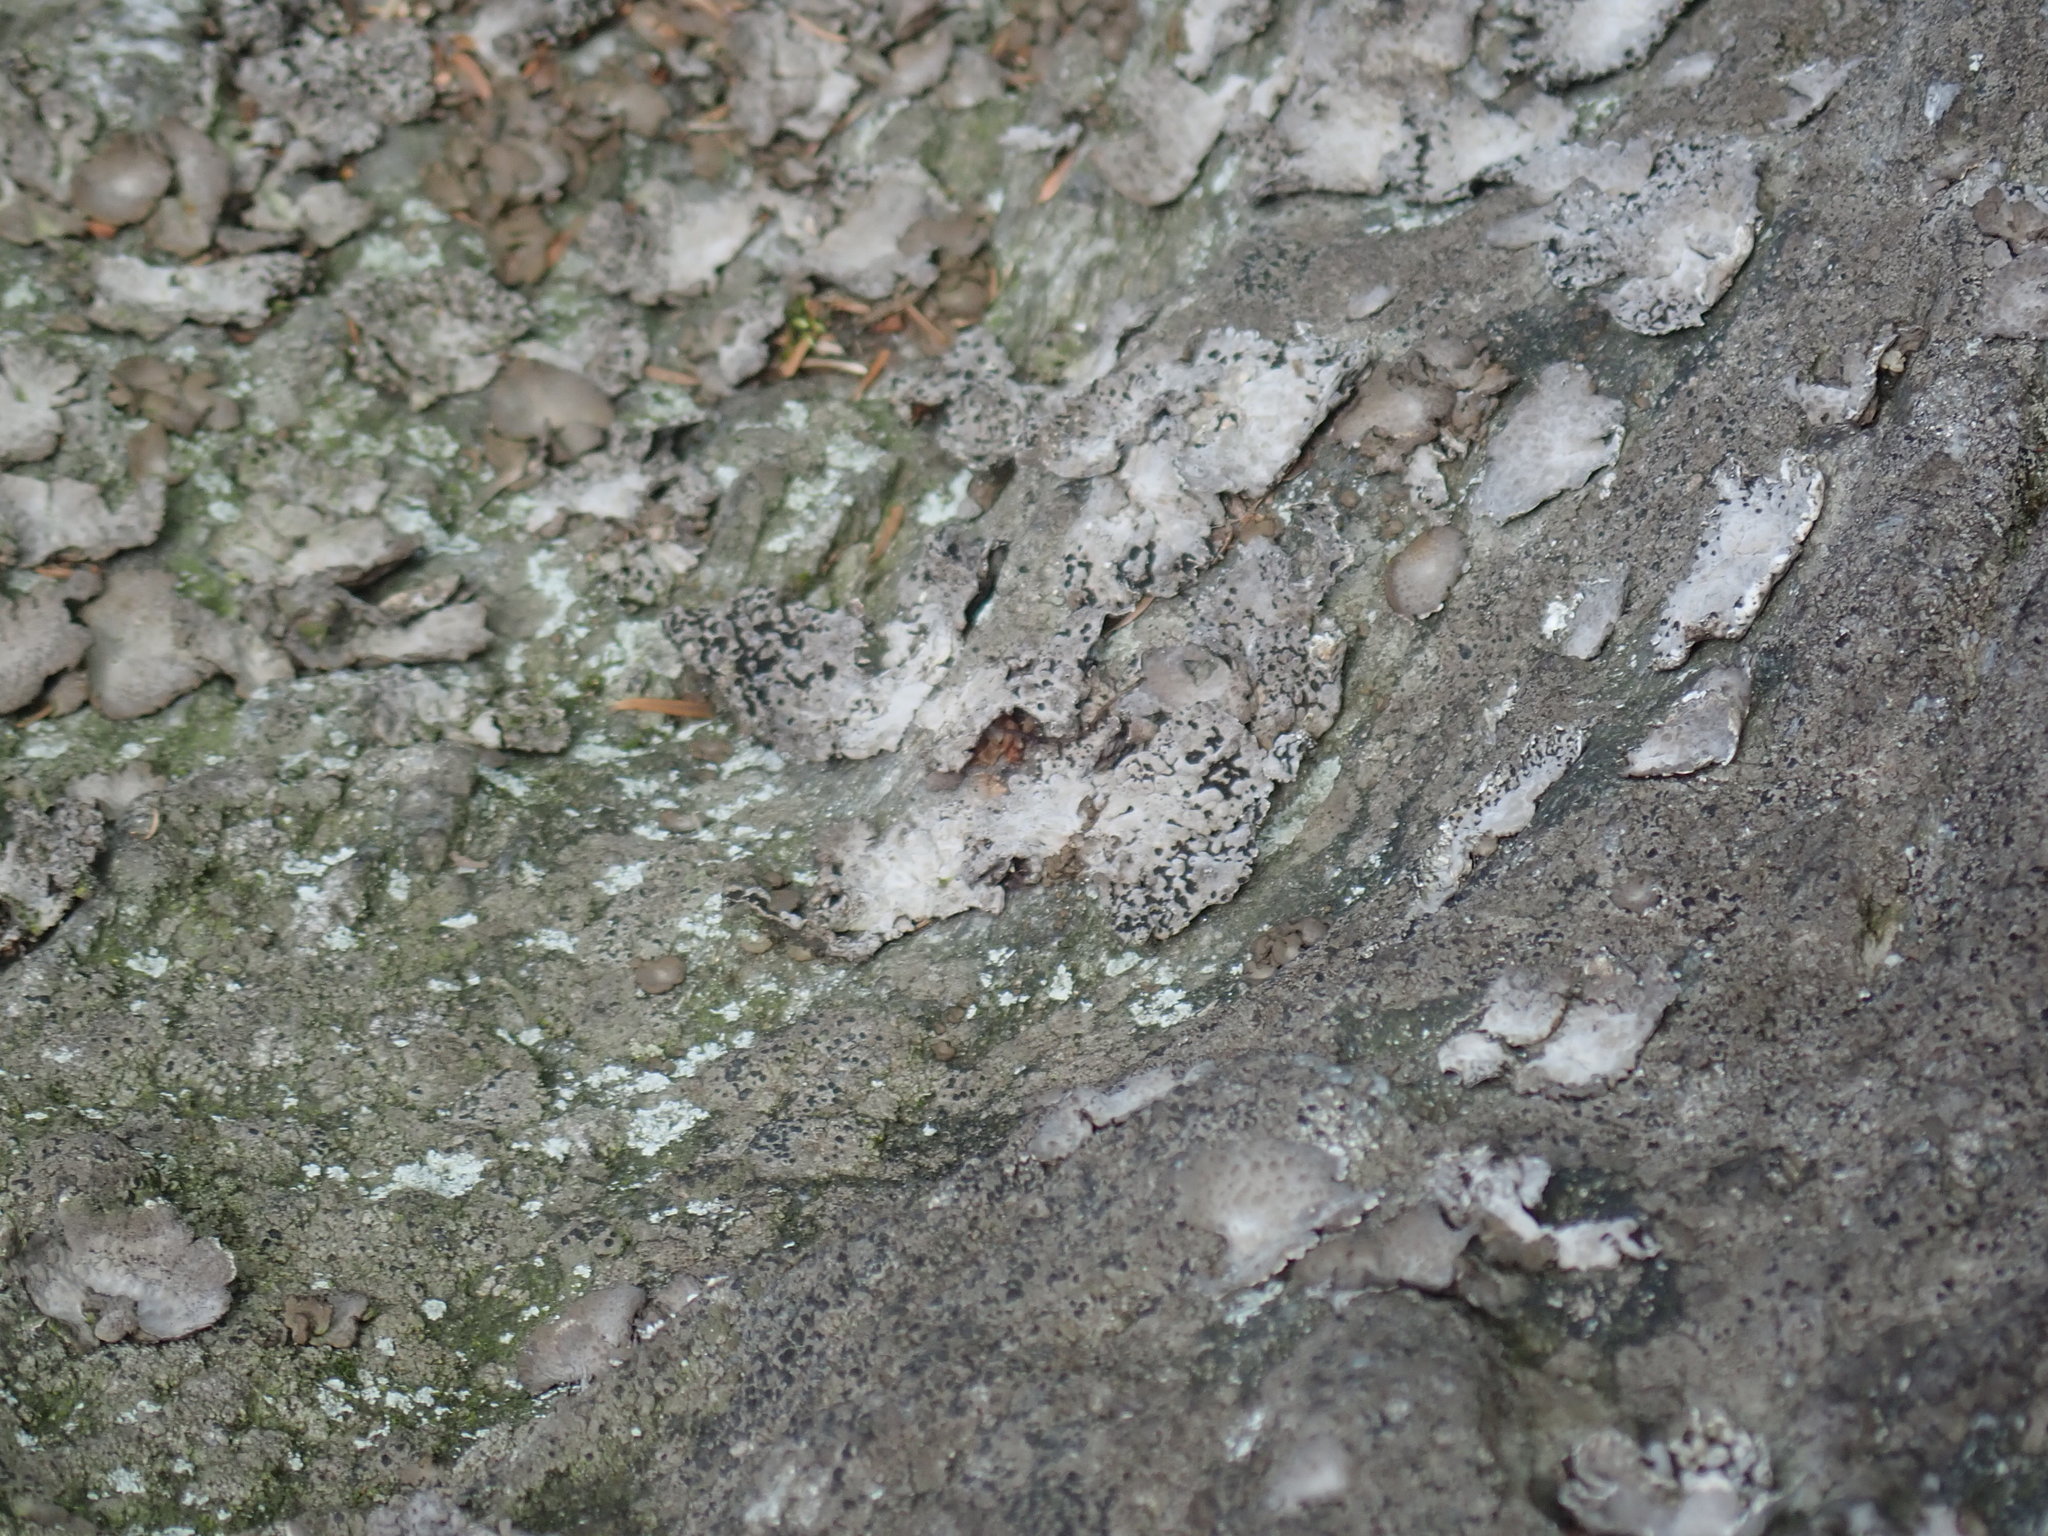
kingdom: Fungi
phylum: Ascomycota
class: Lecanoromycetes
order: Umbilicariales
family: Umbilicariaceae
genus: Lasallia
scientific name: Lasallia papulosa
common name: Common toadskin lichen
